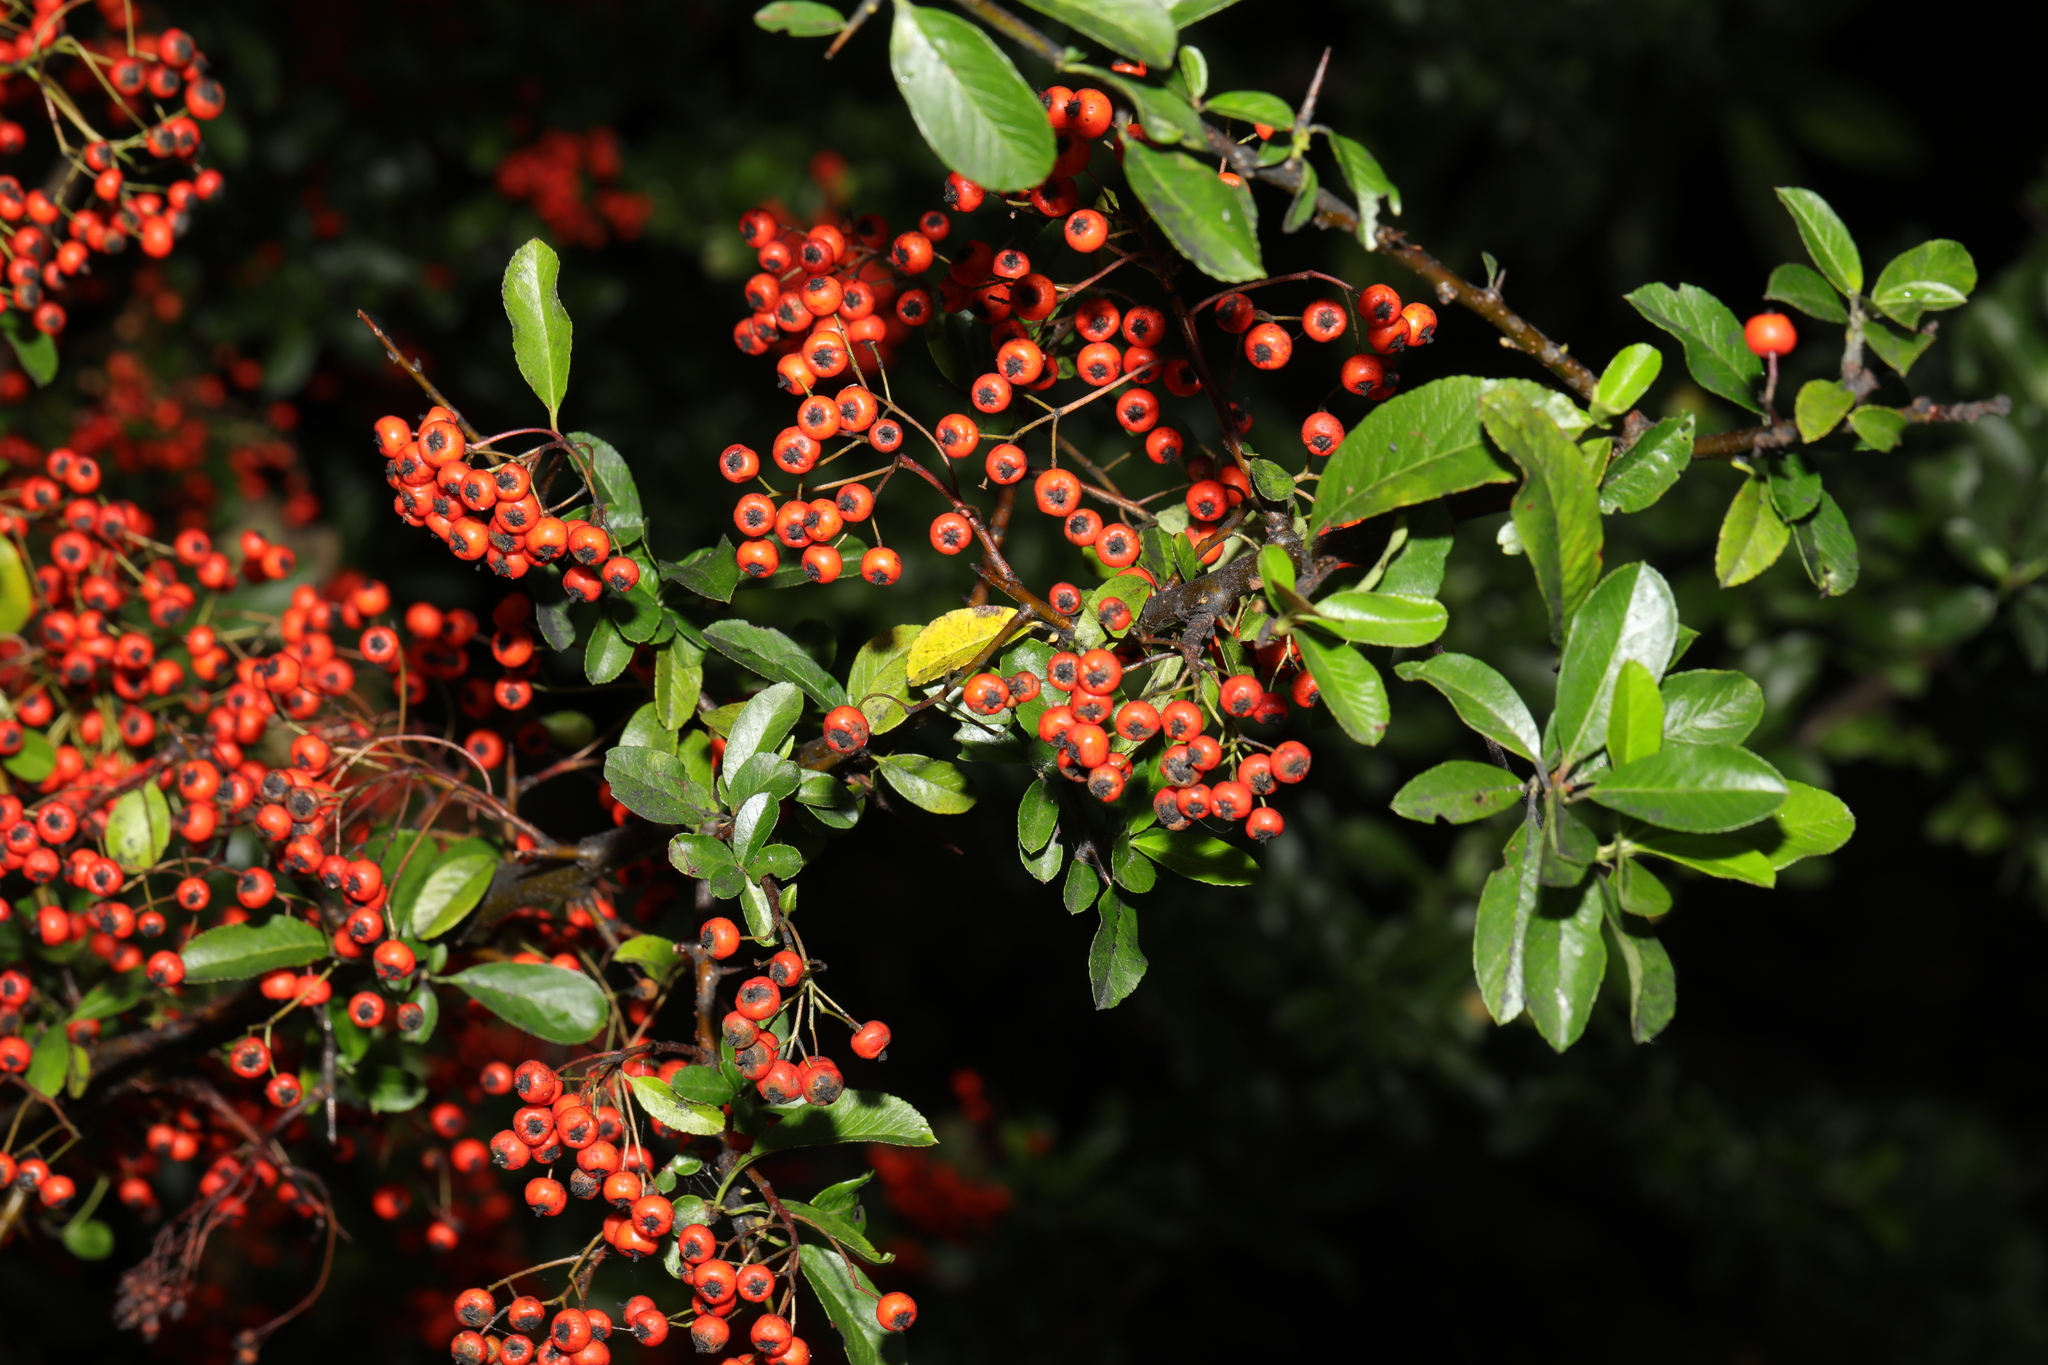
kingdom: Plantae
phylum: Tracheophyta
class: Magnoliopsida
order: Rosales
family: Rosaceae
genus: Pyracantha
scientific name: Pyracantha coccinea
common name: Firethorn
